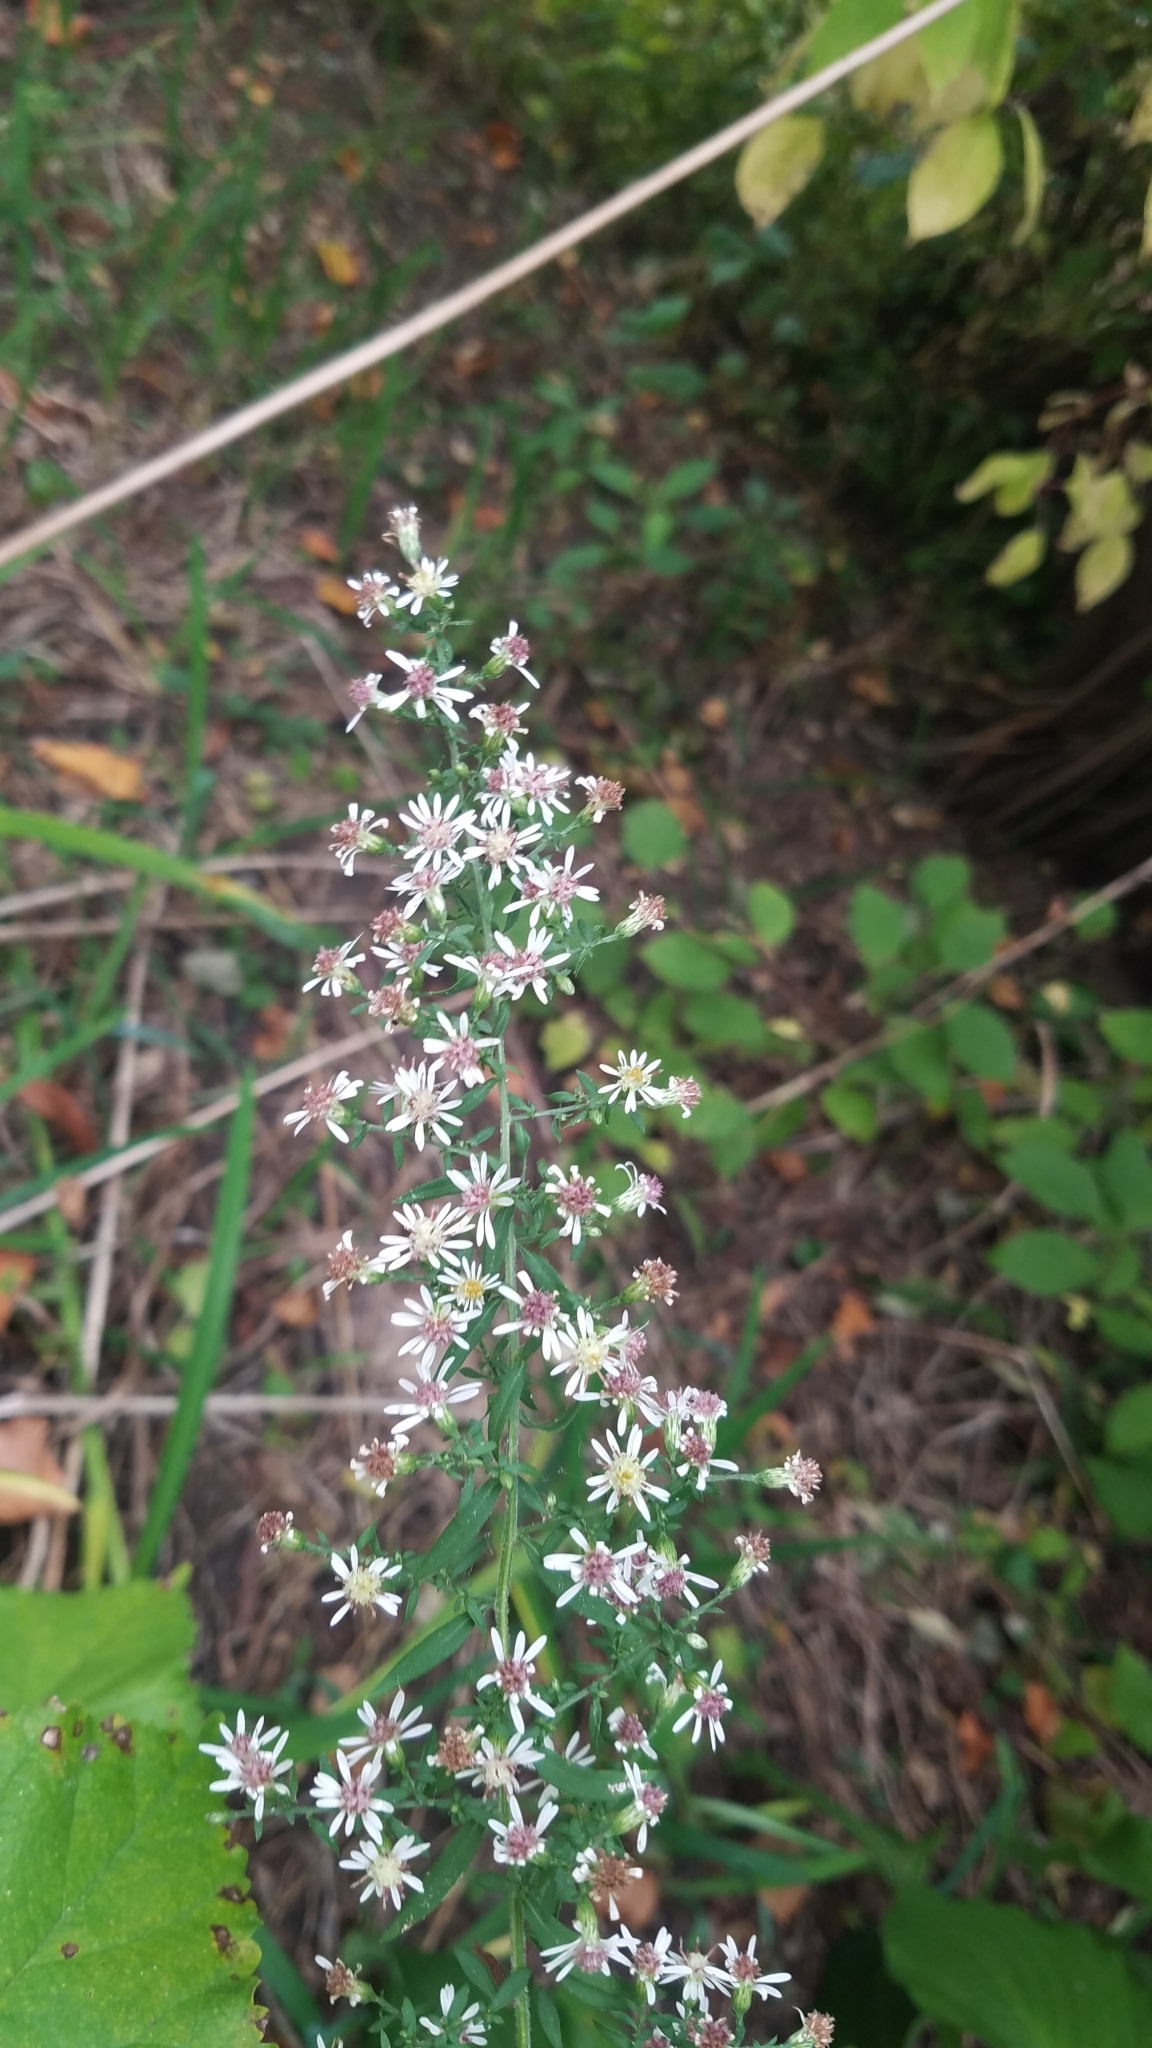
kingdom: Plantae
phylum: Tracheophyta
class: Magnoliopsida
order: Asterales
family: Asteraceae
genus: Symphyotrichum
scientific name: Symphyotrichum lateriflorum
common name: Calico aster
